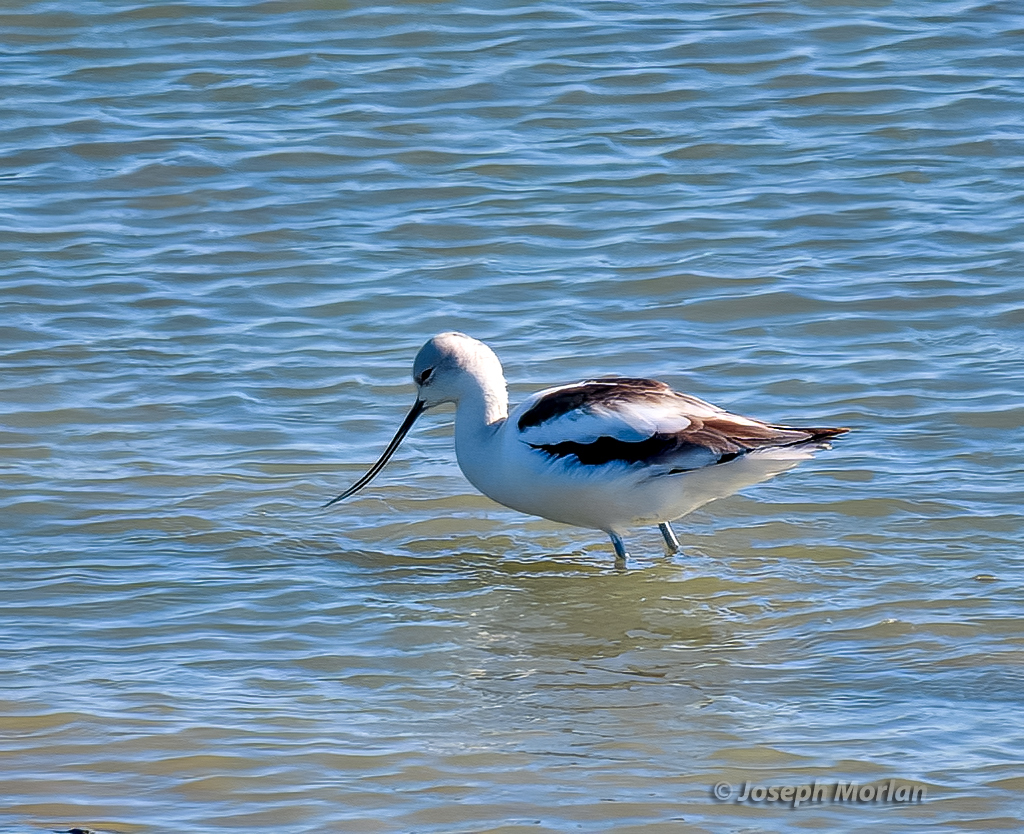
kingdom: Animalia
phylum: Chordata
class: Aves
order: Charadriiformes
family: Recurvirostridae
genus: Recurvirostra
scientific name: Recurvirostra americana
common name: American avocet
